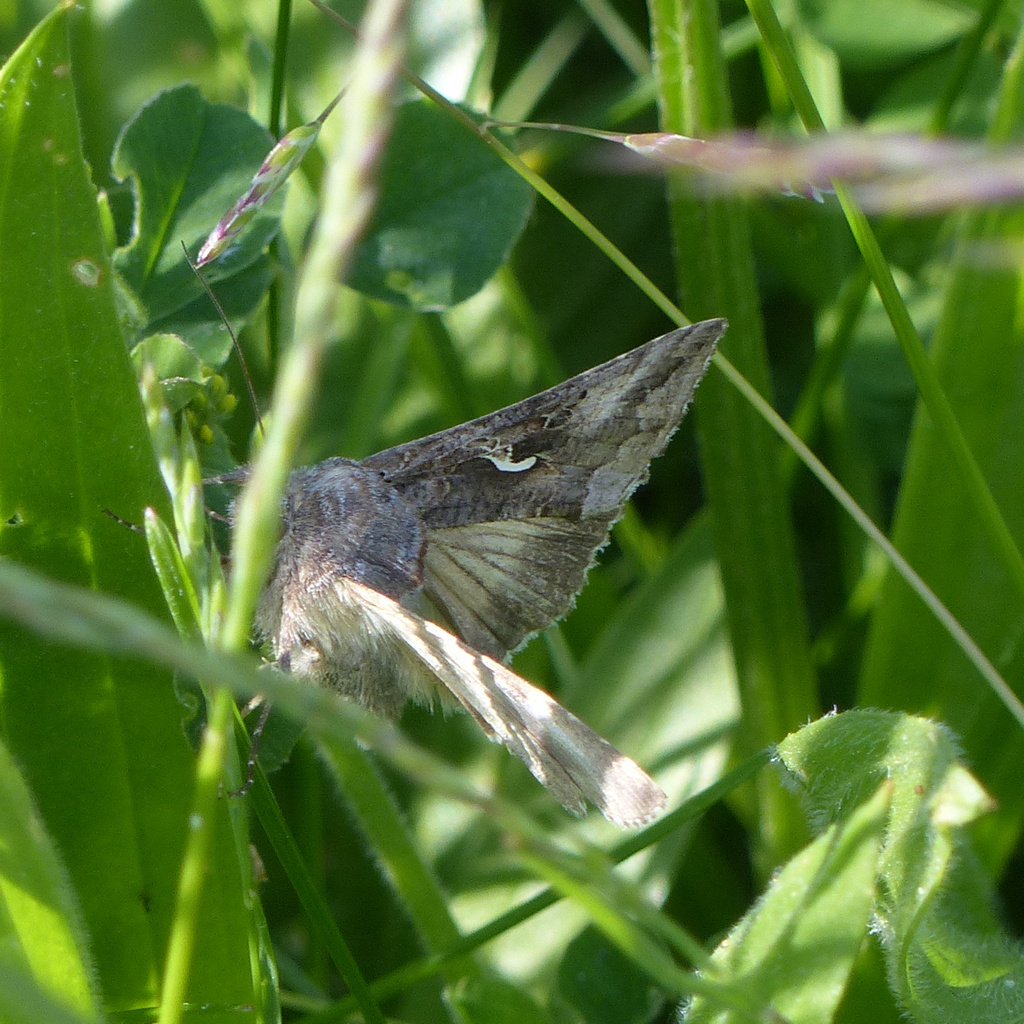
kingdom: Animalia
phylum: Arthropoda
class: Insecta
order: Lepidoptera
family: Noctuidae
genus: Autographa
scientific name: Autographa gamma
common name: Silver y
